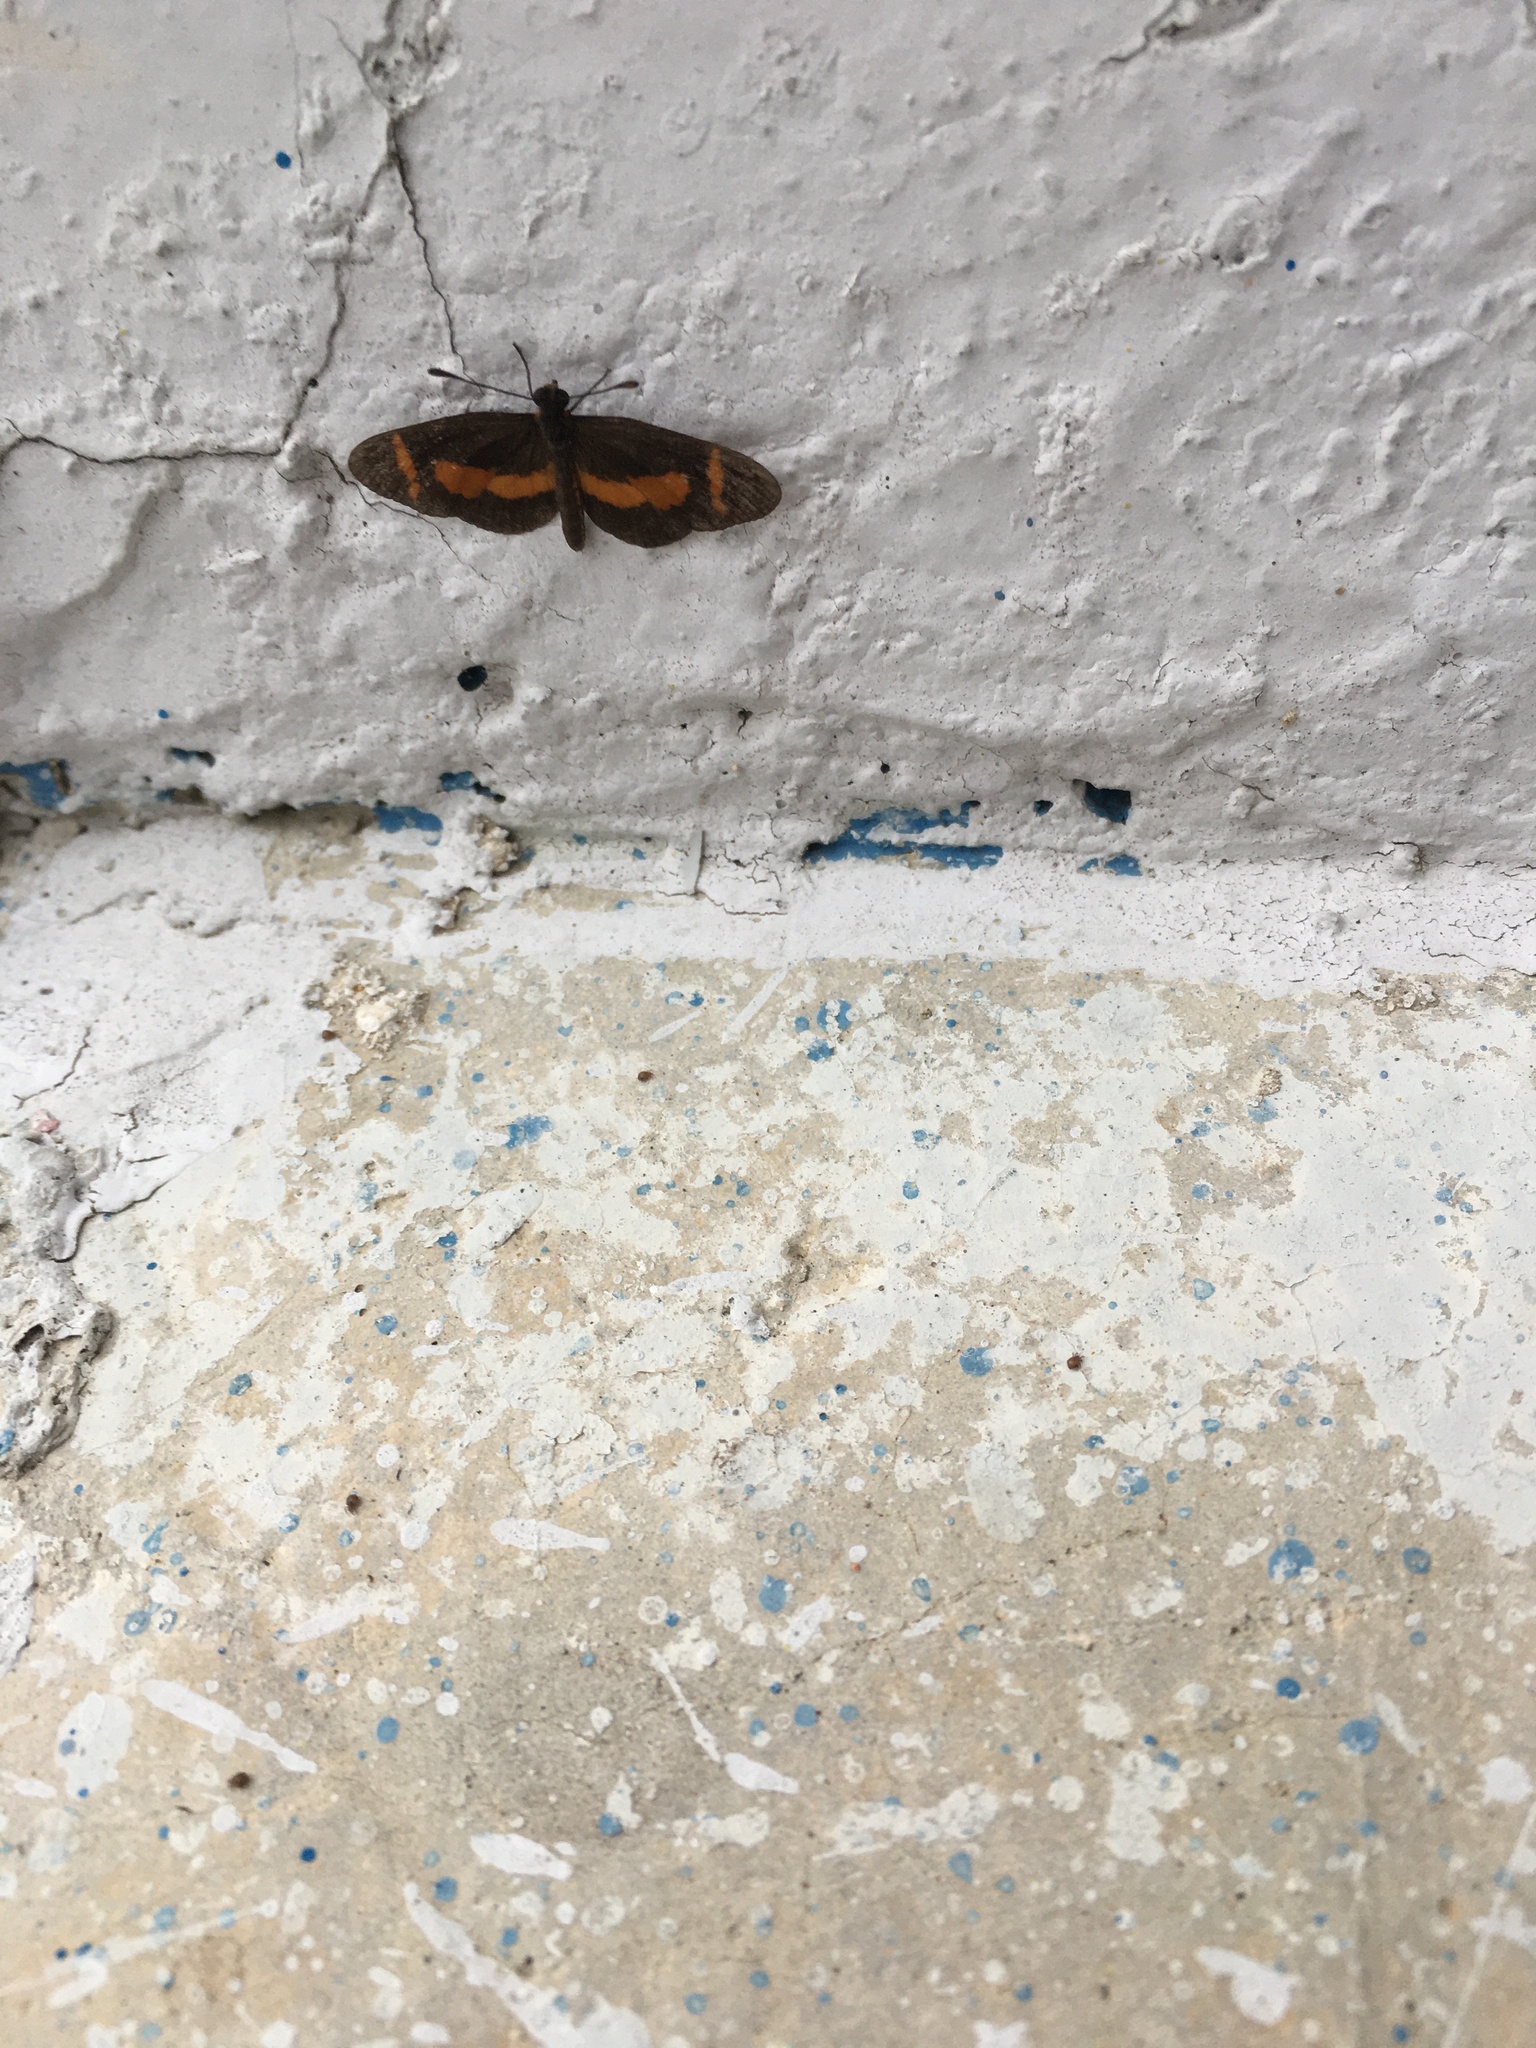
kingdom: Animalia
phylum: Arthropoda
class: Insecta
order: Lepidoptera
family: Nymphalidae
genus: Microtia
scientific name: Microtia elva
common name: Elf
